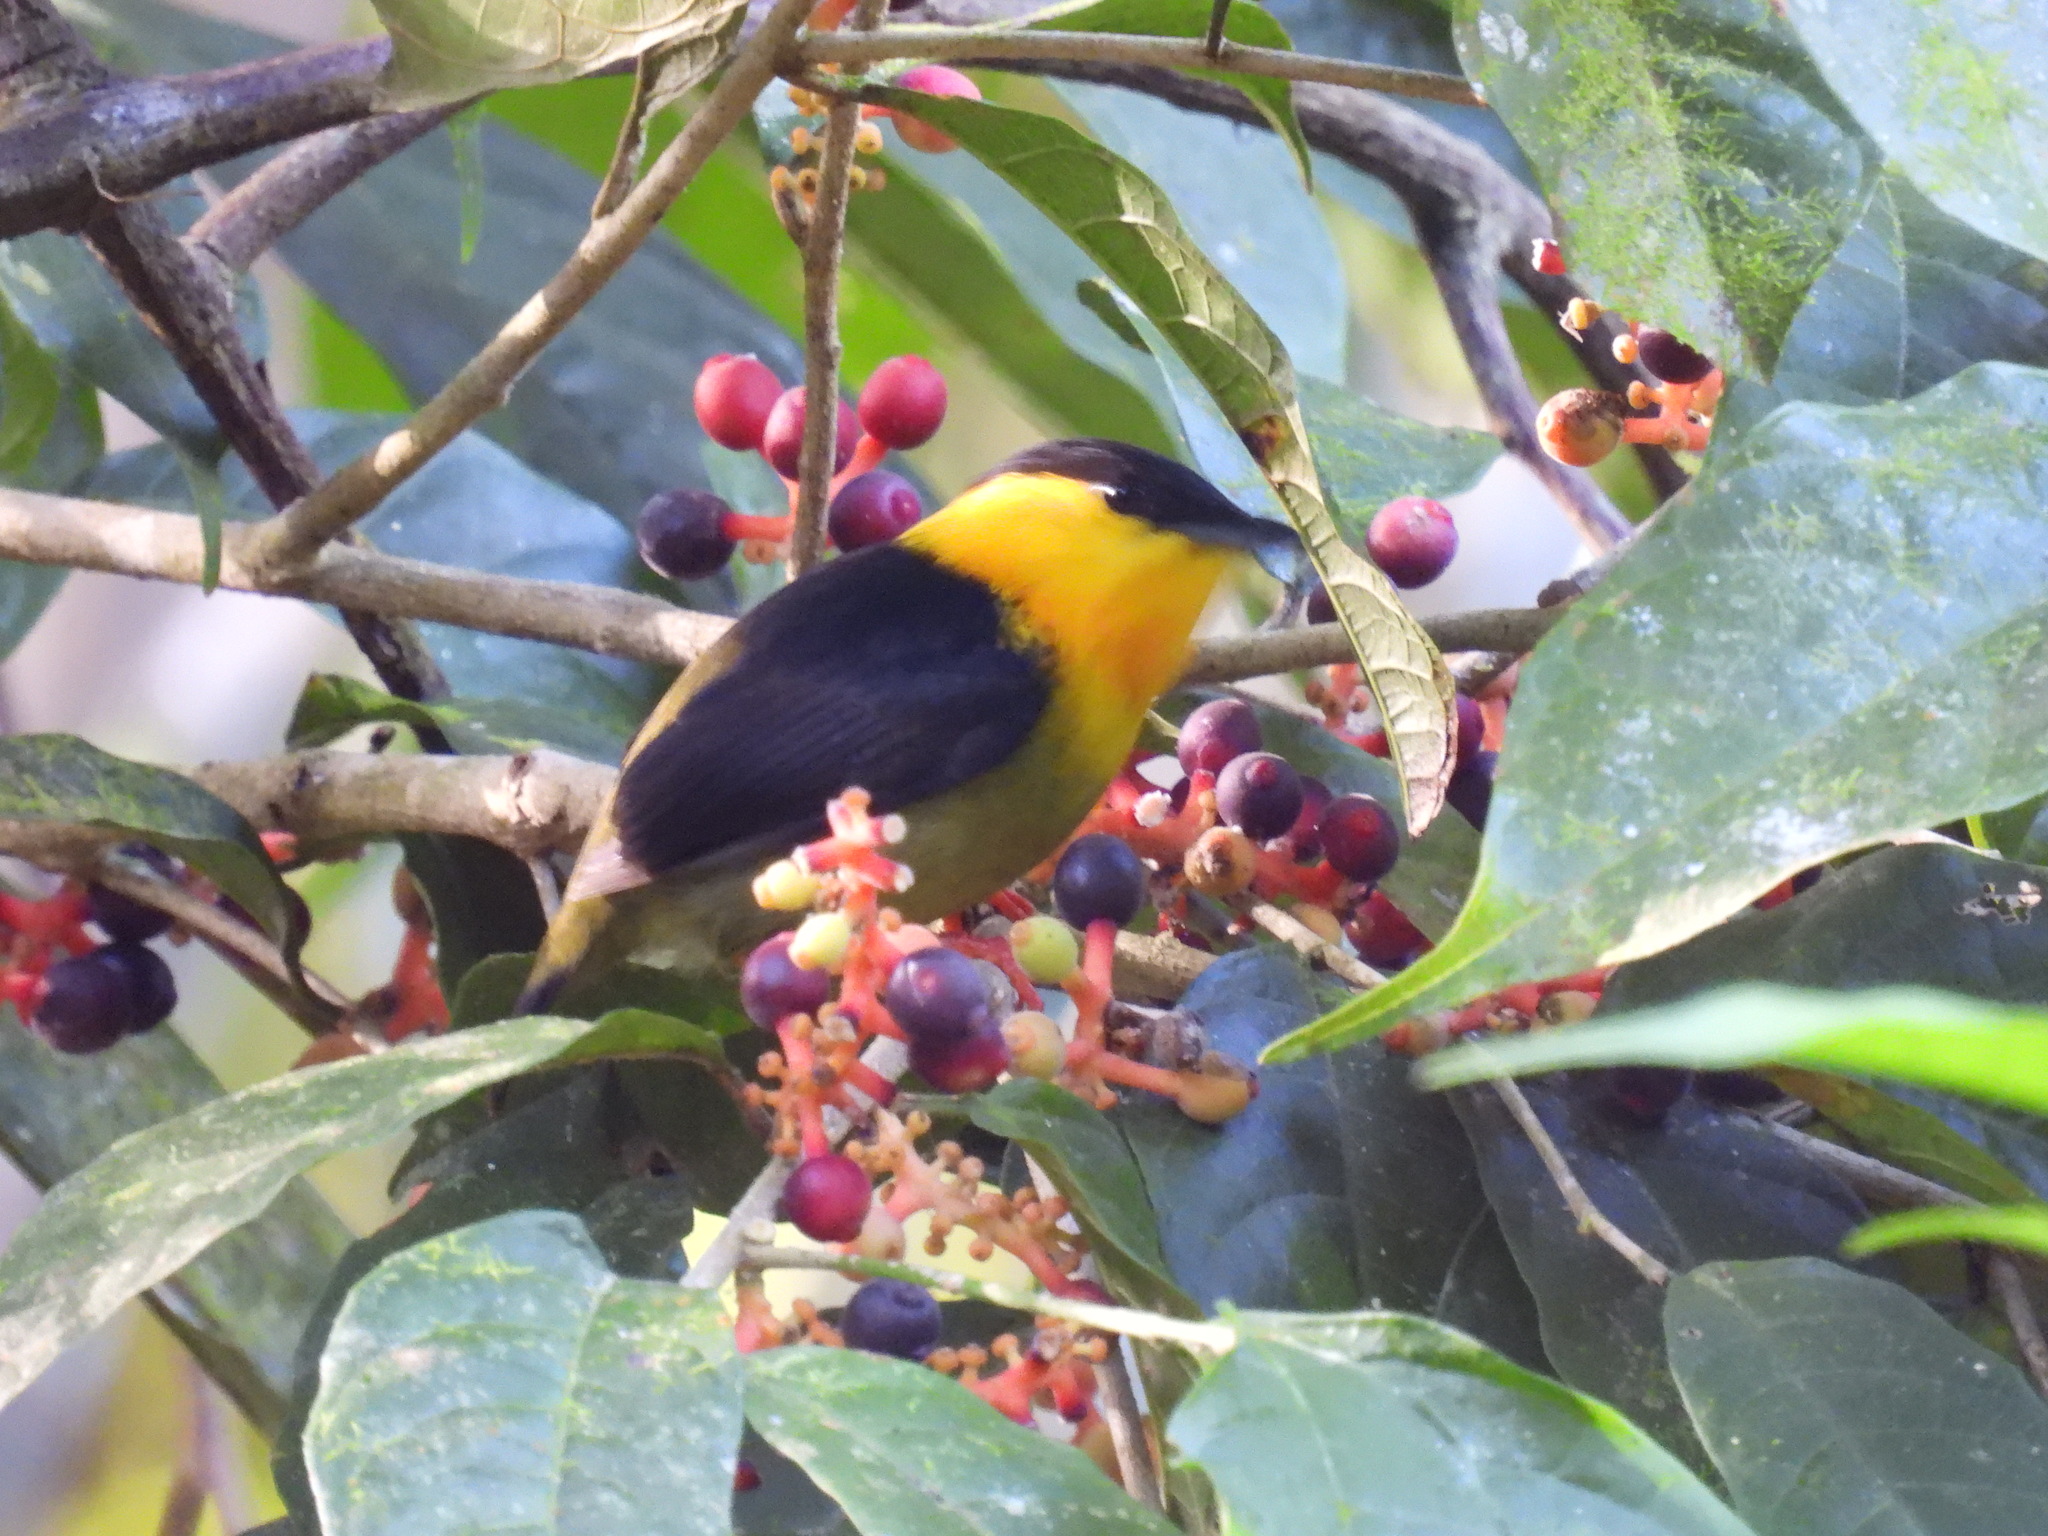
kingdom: Animalia
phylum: Chordata
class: Aves
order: Passeriformes
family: Pipridae
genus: Manacus
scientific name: Manacus vitellinus
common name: Golden-collared manakin
